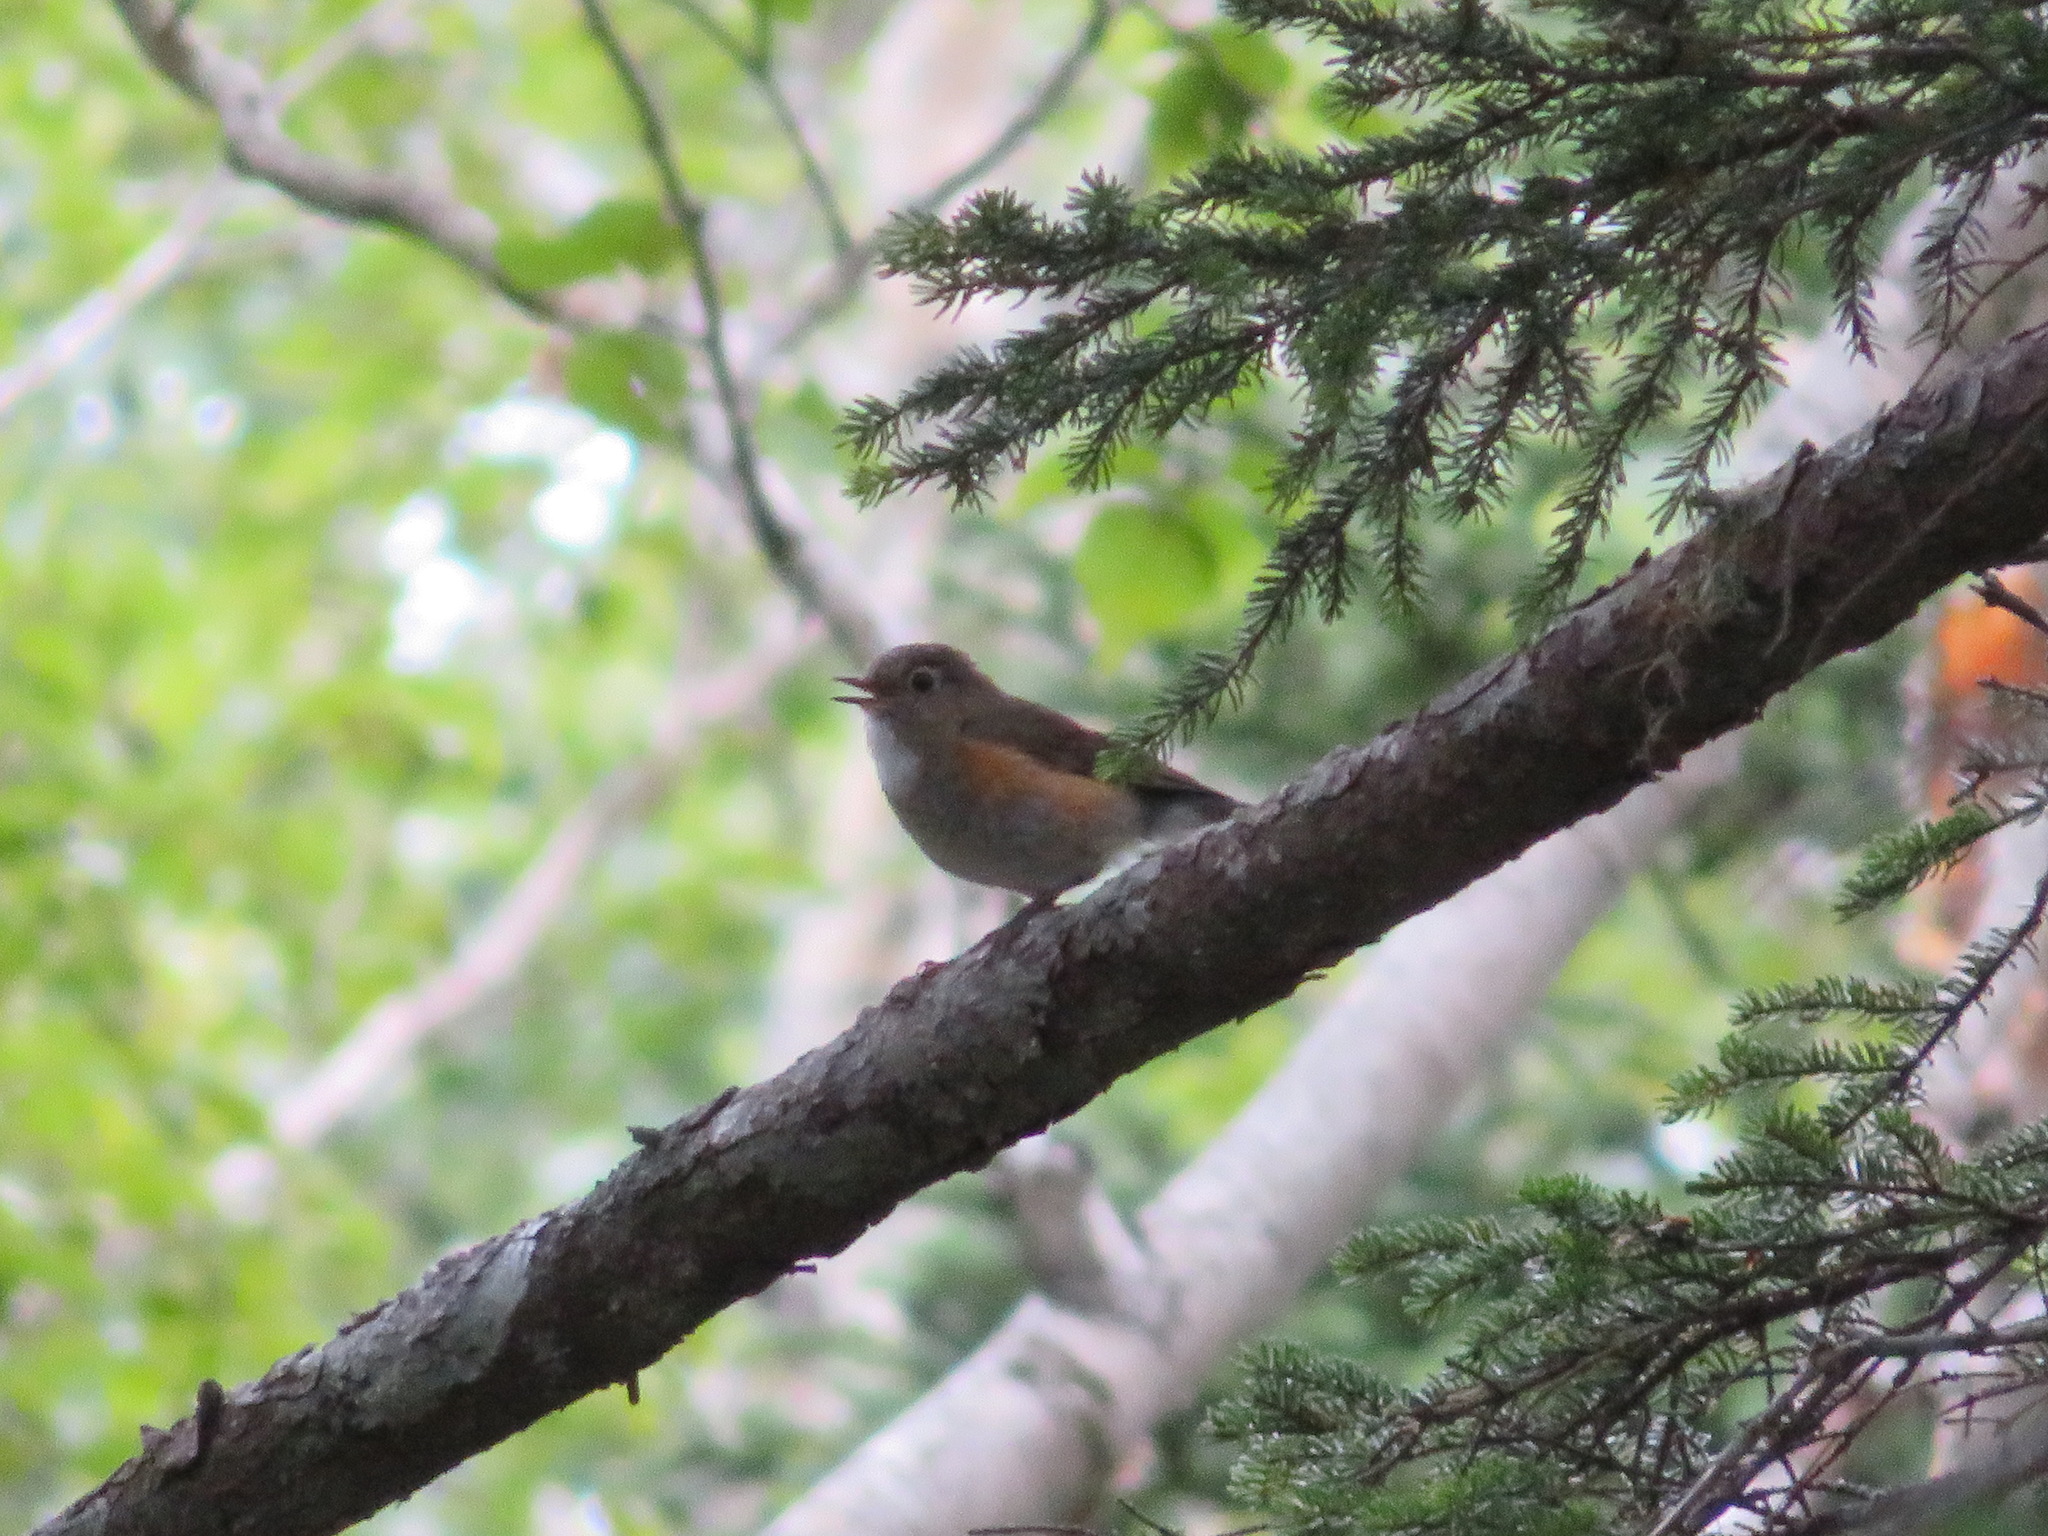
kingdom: Animalia
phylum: Chordata
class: Aves
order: Passeriformes
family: Muscicapidae
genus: Tarsiger
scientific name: Tarsiger cyanurus
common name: Red-flanked bluetail
